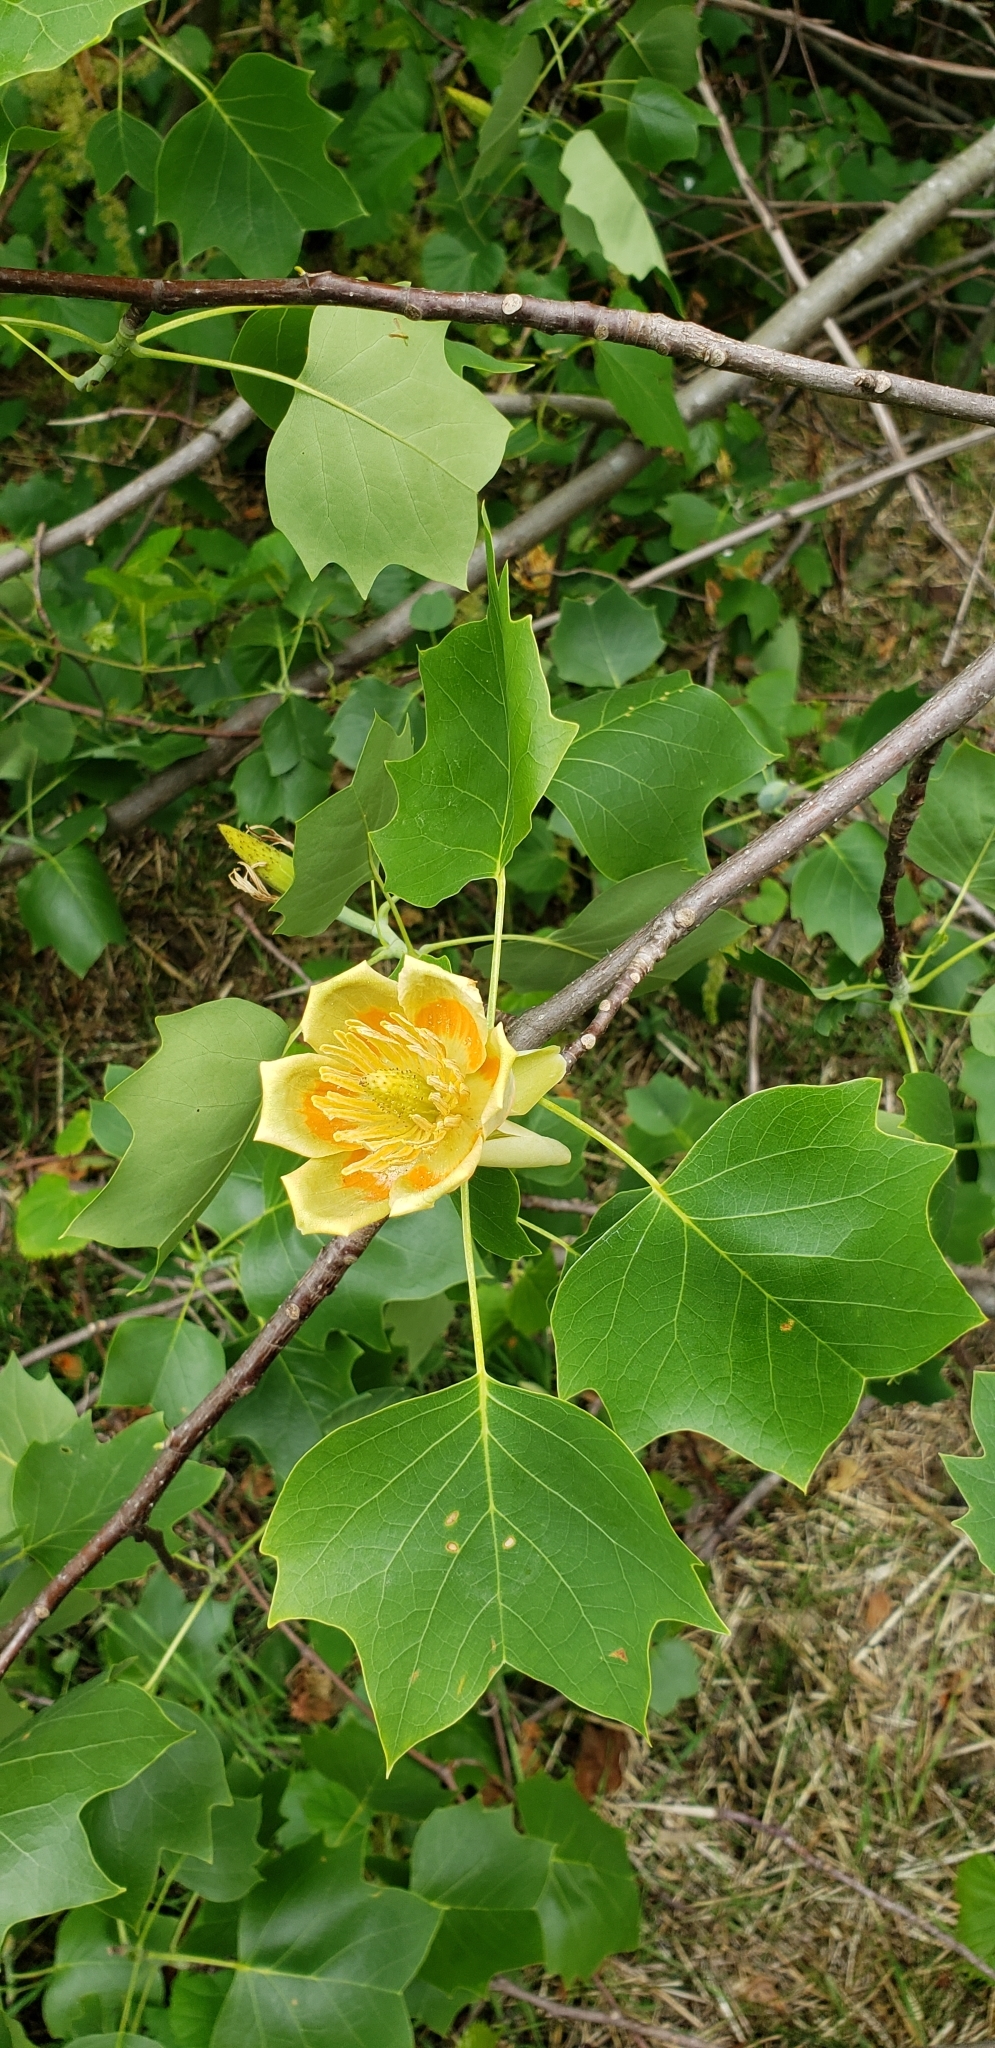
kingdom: Plantae
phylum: Tracheophyta
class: Magnoliopsida
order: Magnoliales
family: Magnoliaceae
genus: Liriodendron
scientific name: Liriodendron tulipifera
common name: Tulip tree
